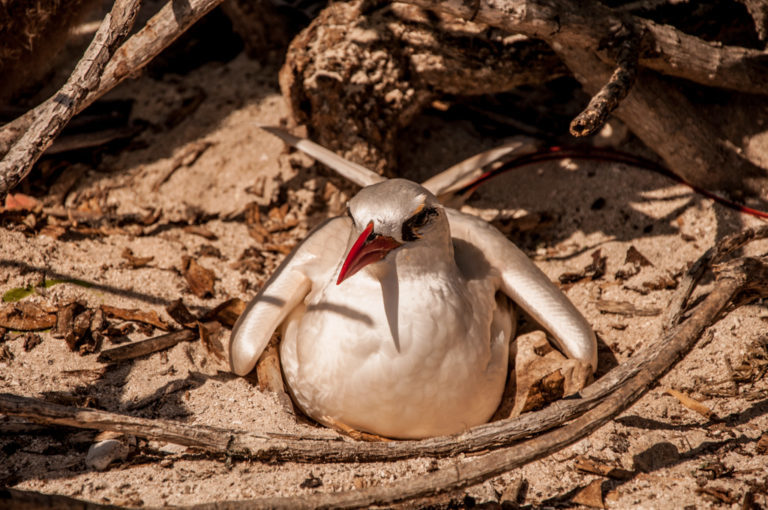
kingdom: Animalia
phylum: Chordata
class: Aves
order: Phaethontiformes
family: Phaethontidae
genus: Phaethon
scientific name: Phaethon rubricauda
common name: Red-tailed tropicbird
